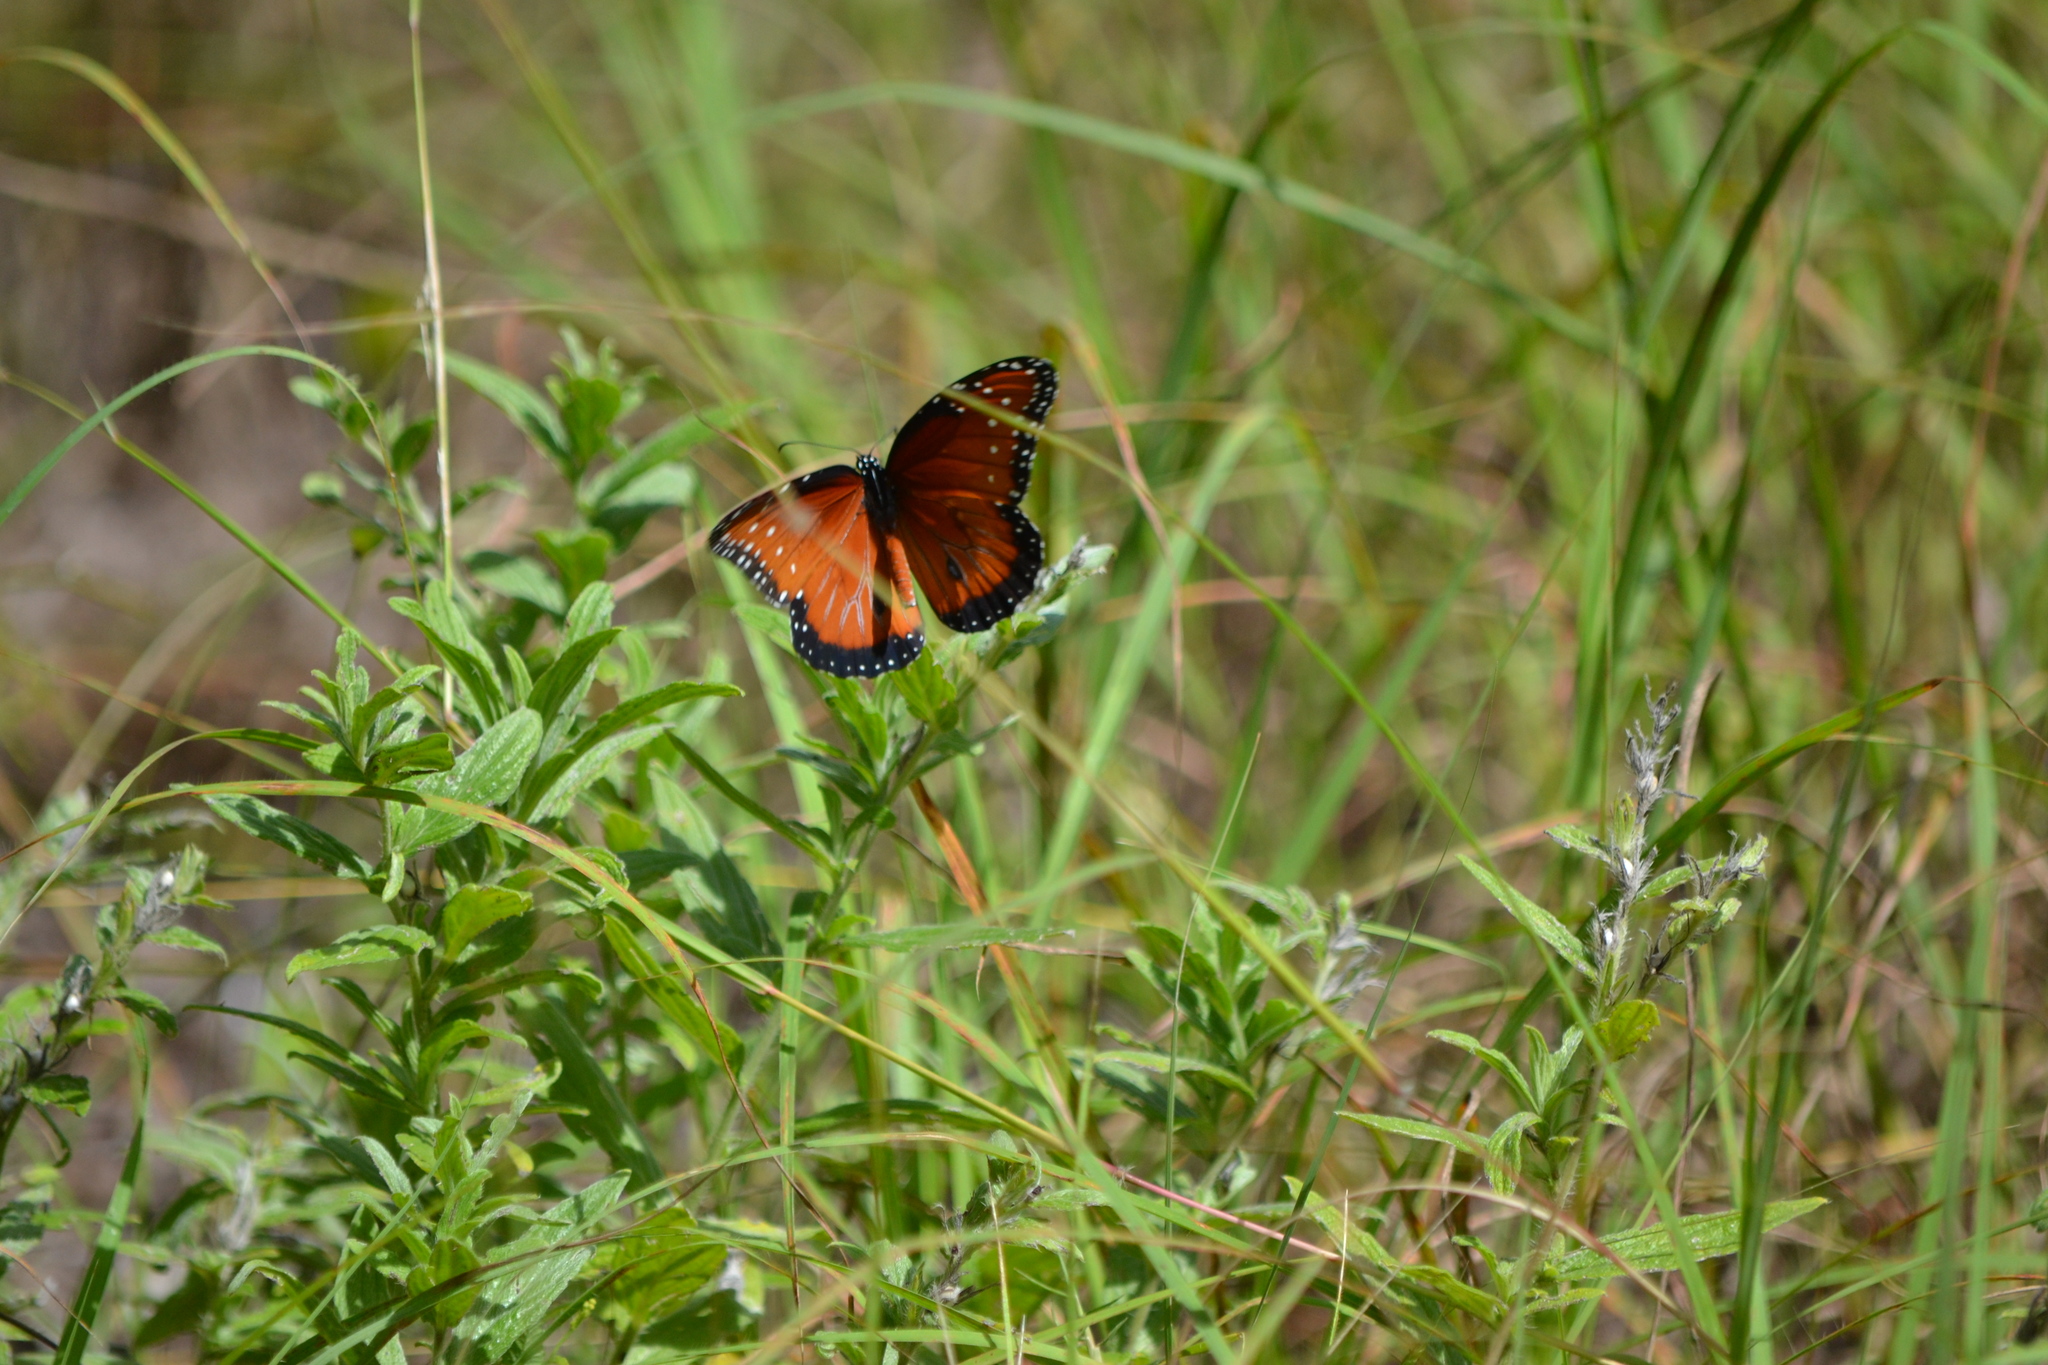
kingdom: Animalia
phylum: Arthropoda
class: Insecta
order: Lepidoptera
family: Nymphalidae
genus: Danaus
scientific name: Danaus gilippus
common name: Queen
